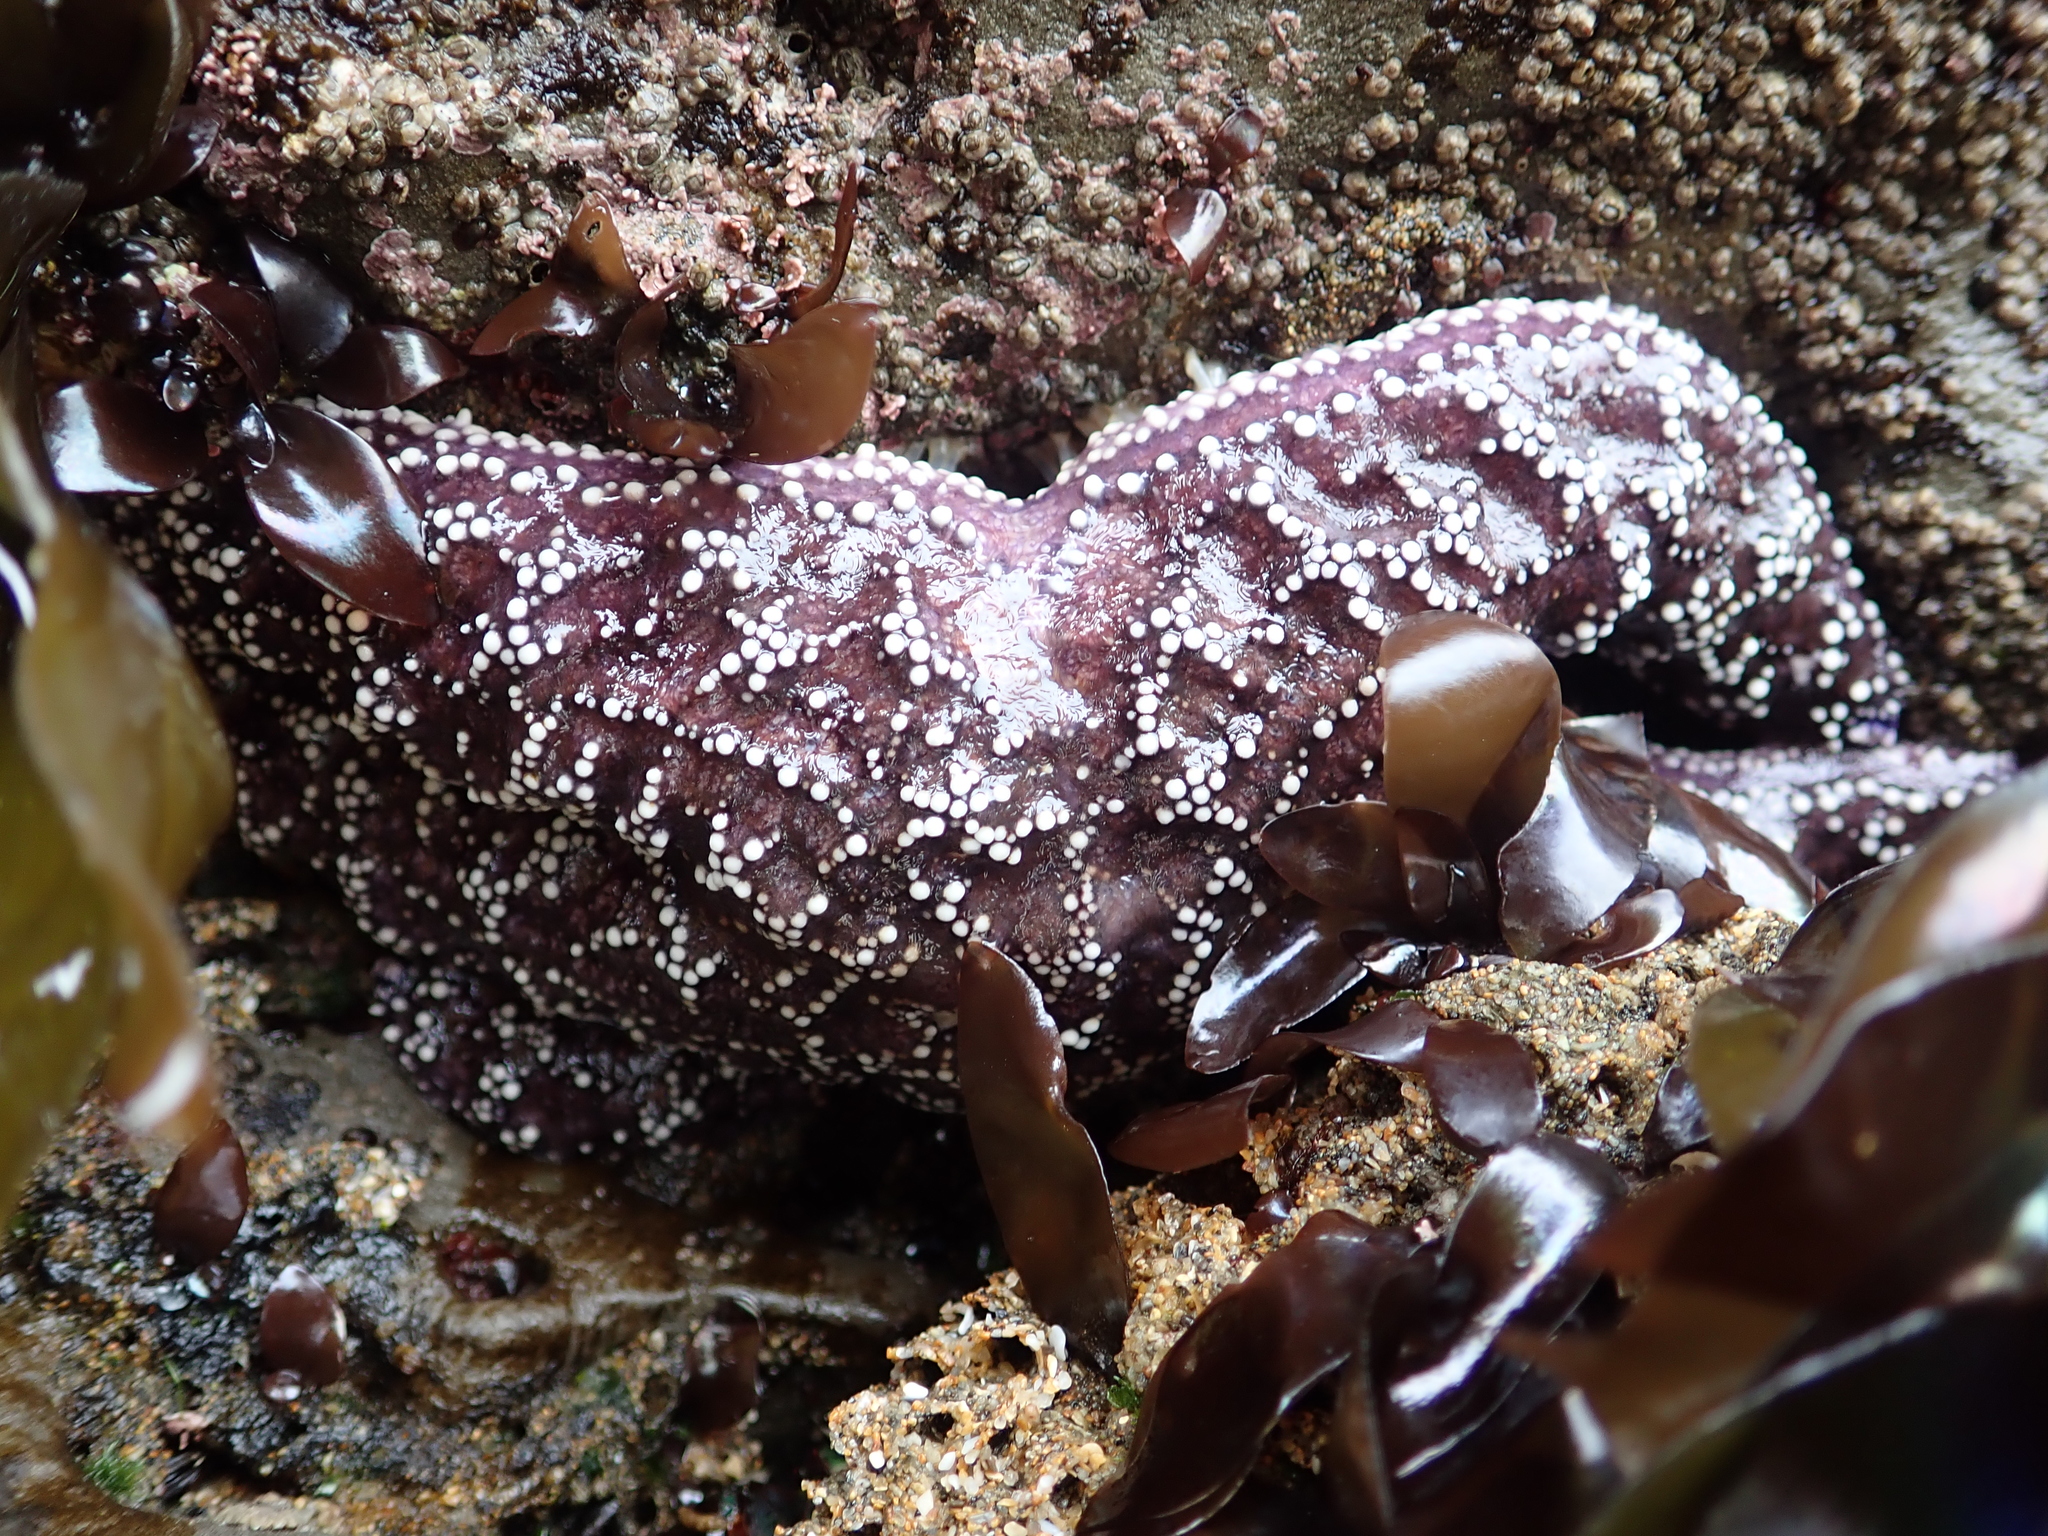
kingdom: Animalia
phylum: Echinodermata
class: Asteroidea
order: Forcipulatida
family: Asteriidae
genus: Pisaster
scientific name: Pisaster ochraceus
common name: Ochre stars
